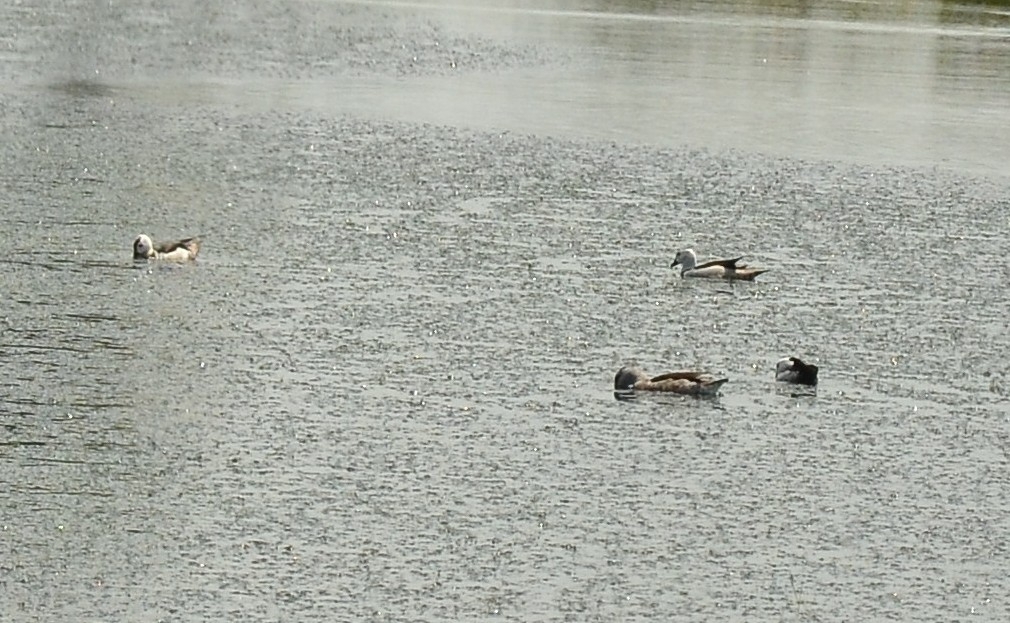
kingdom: Animalia
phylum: Chordata
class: Aves
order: Anseriformes
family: Anatidae
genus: Nettapus
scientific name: Nettapus coromandelianus
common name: Cotton pygmy-goose
